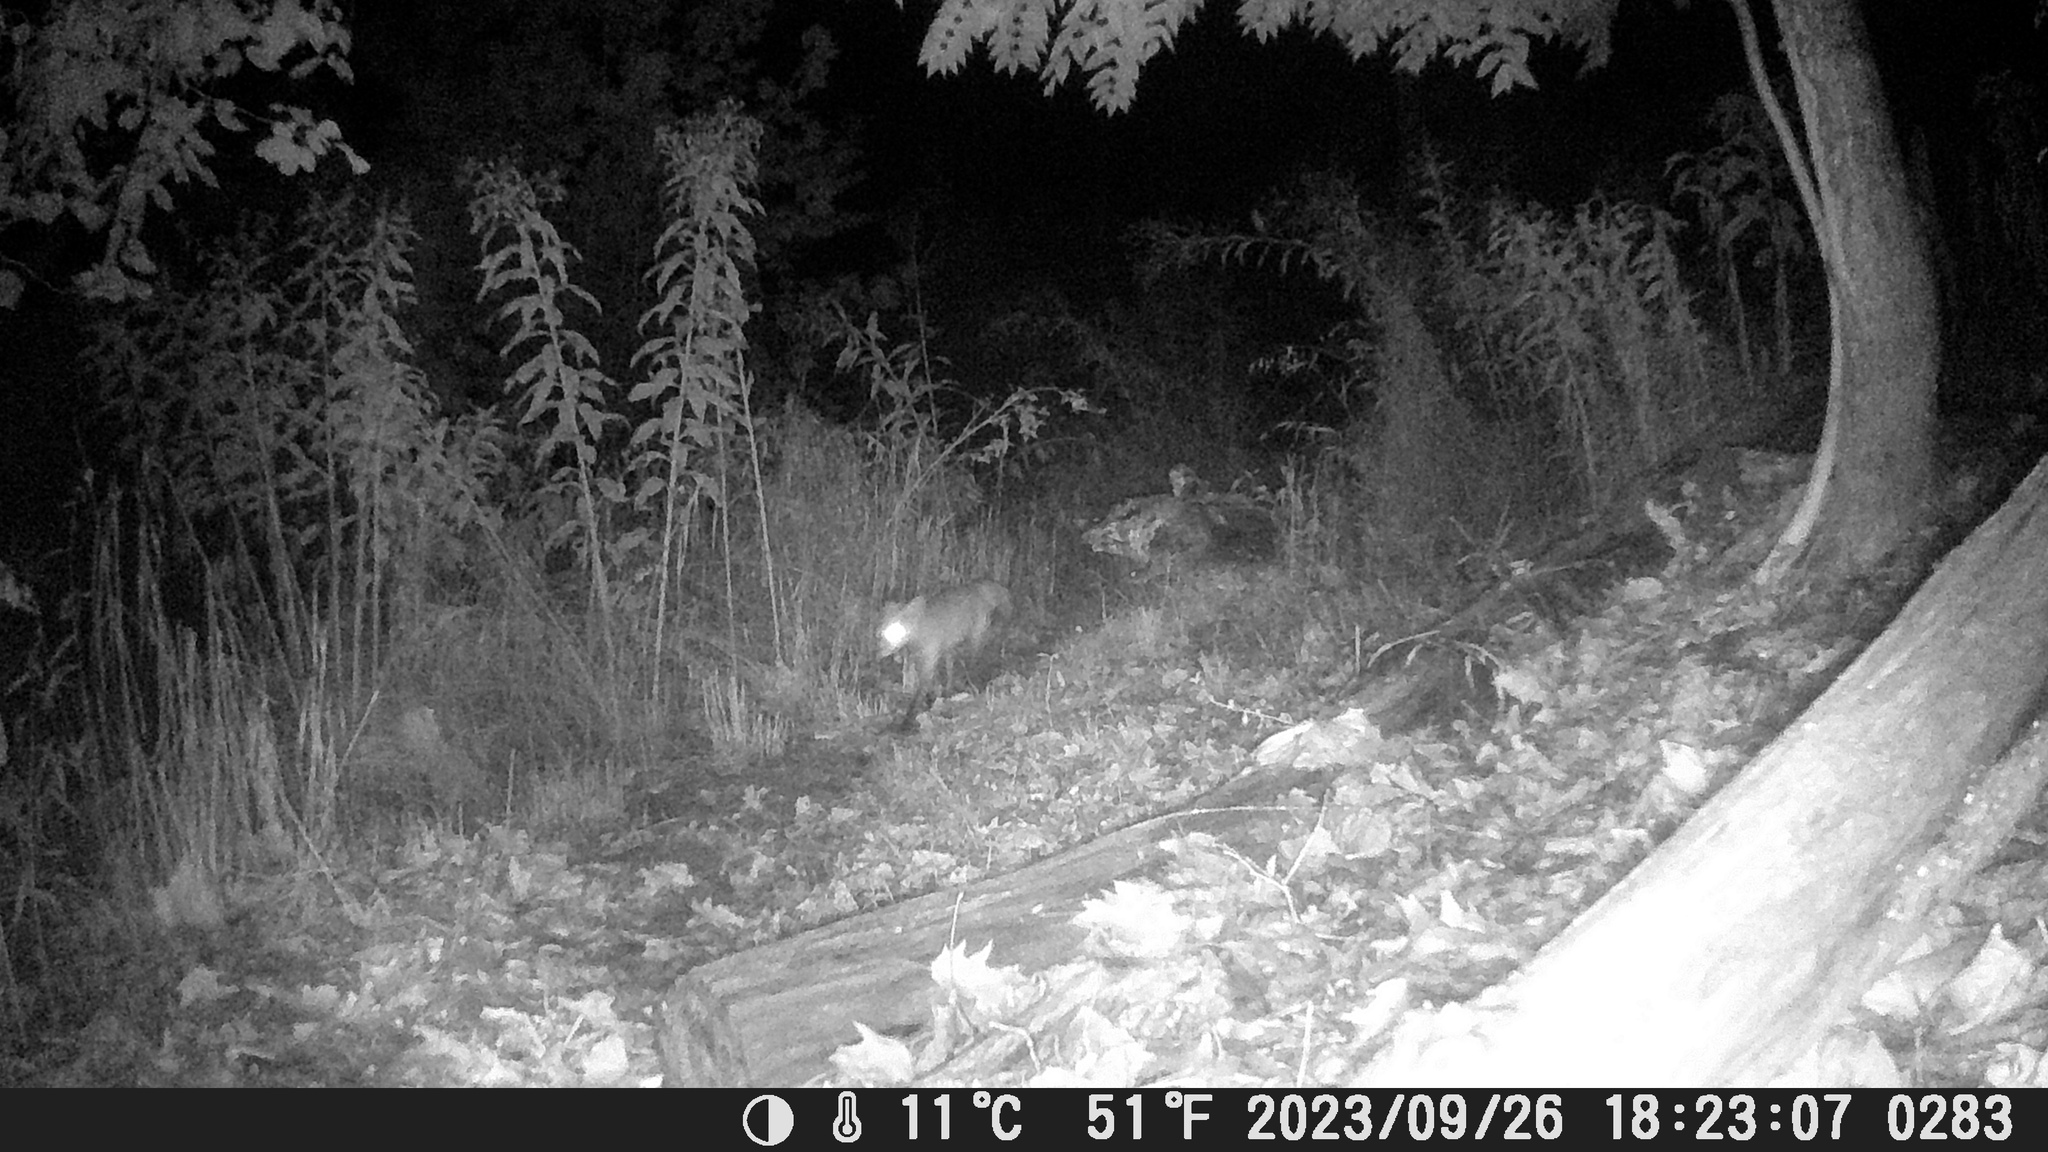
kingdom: Animalia
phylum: Chordata
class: Mammalia
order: Carnivora
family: Canidae
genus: Vulpes
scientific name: Vulpes vulpes
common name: Red fox
